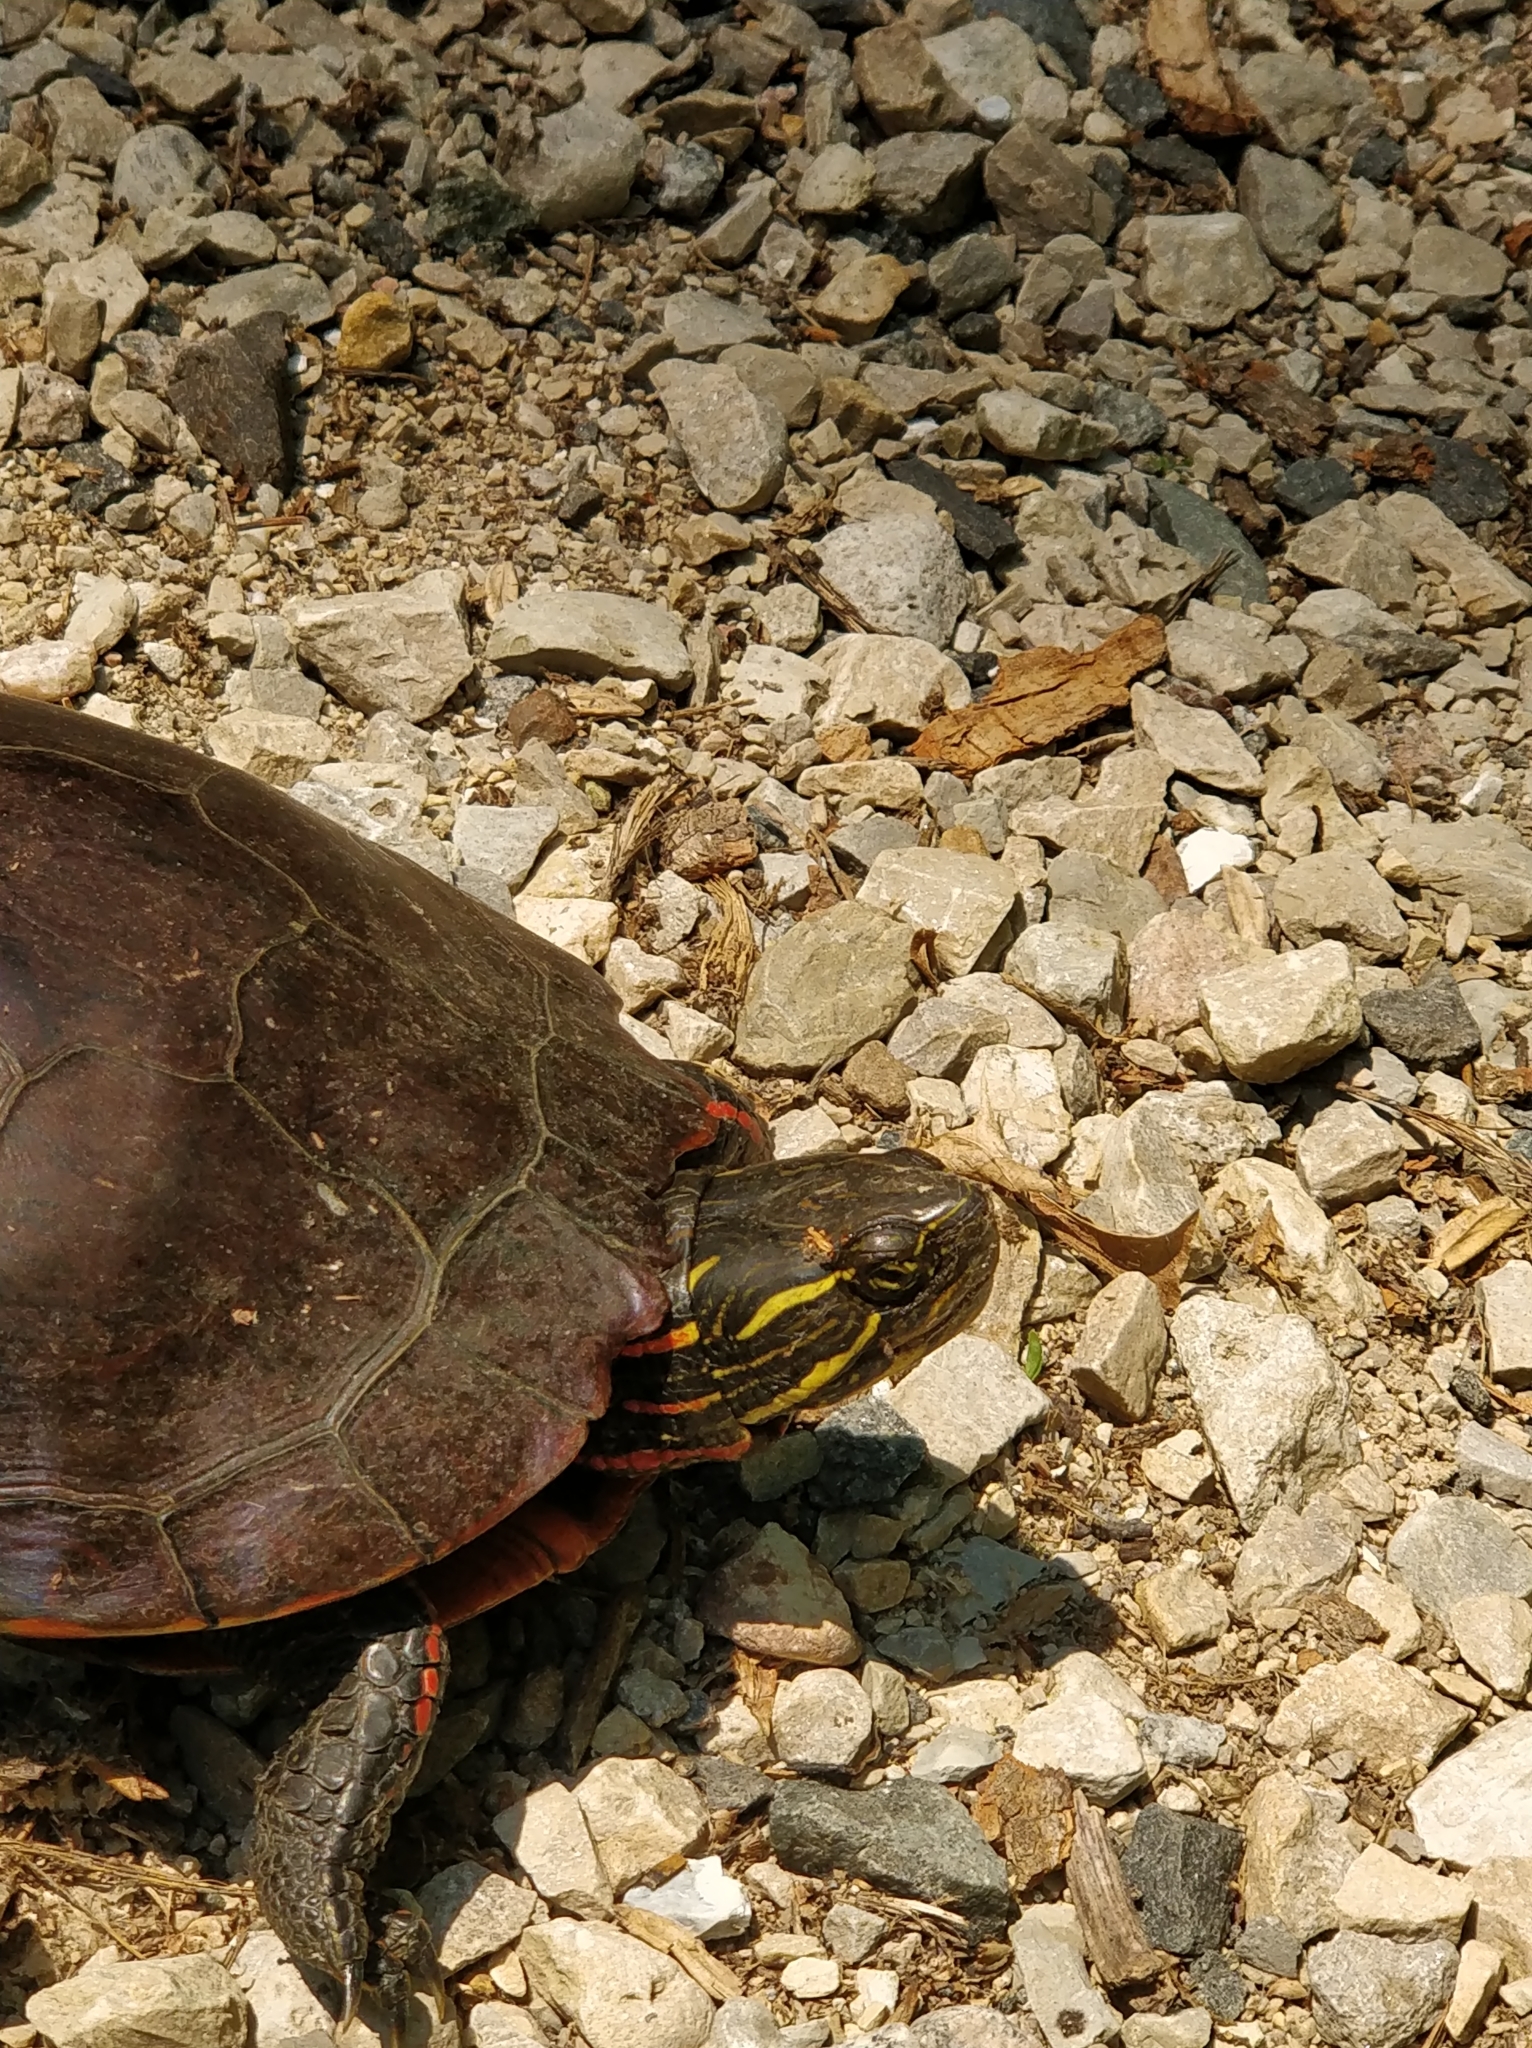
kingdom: Animalia
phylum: Chordata
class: Testudines
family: Emydidae
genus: Chrysemys
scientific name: Chrysemys picta
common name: Painted turtle
